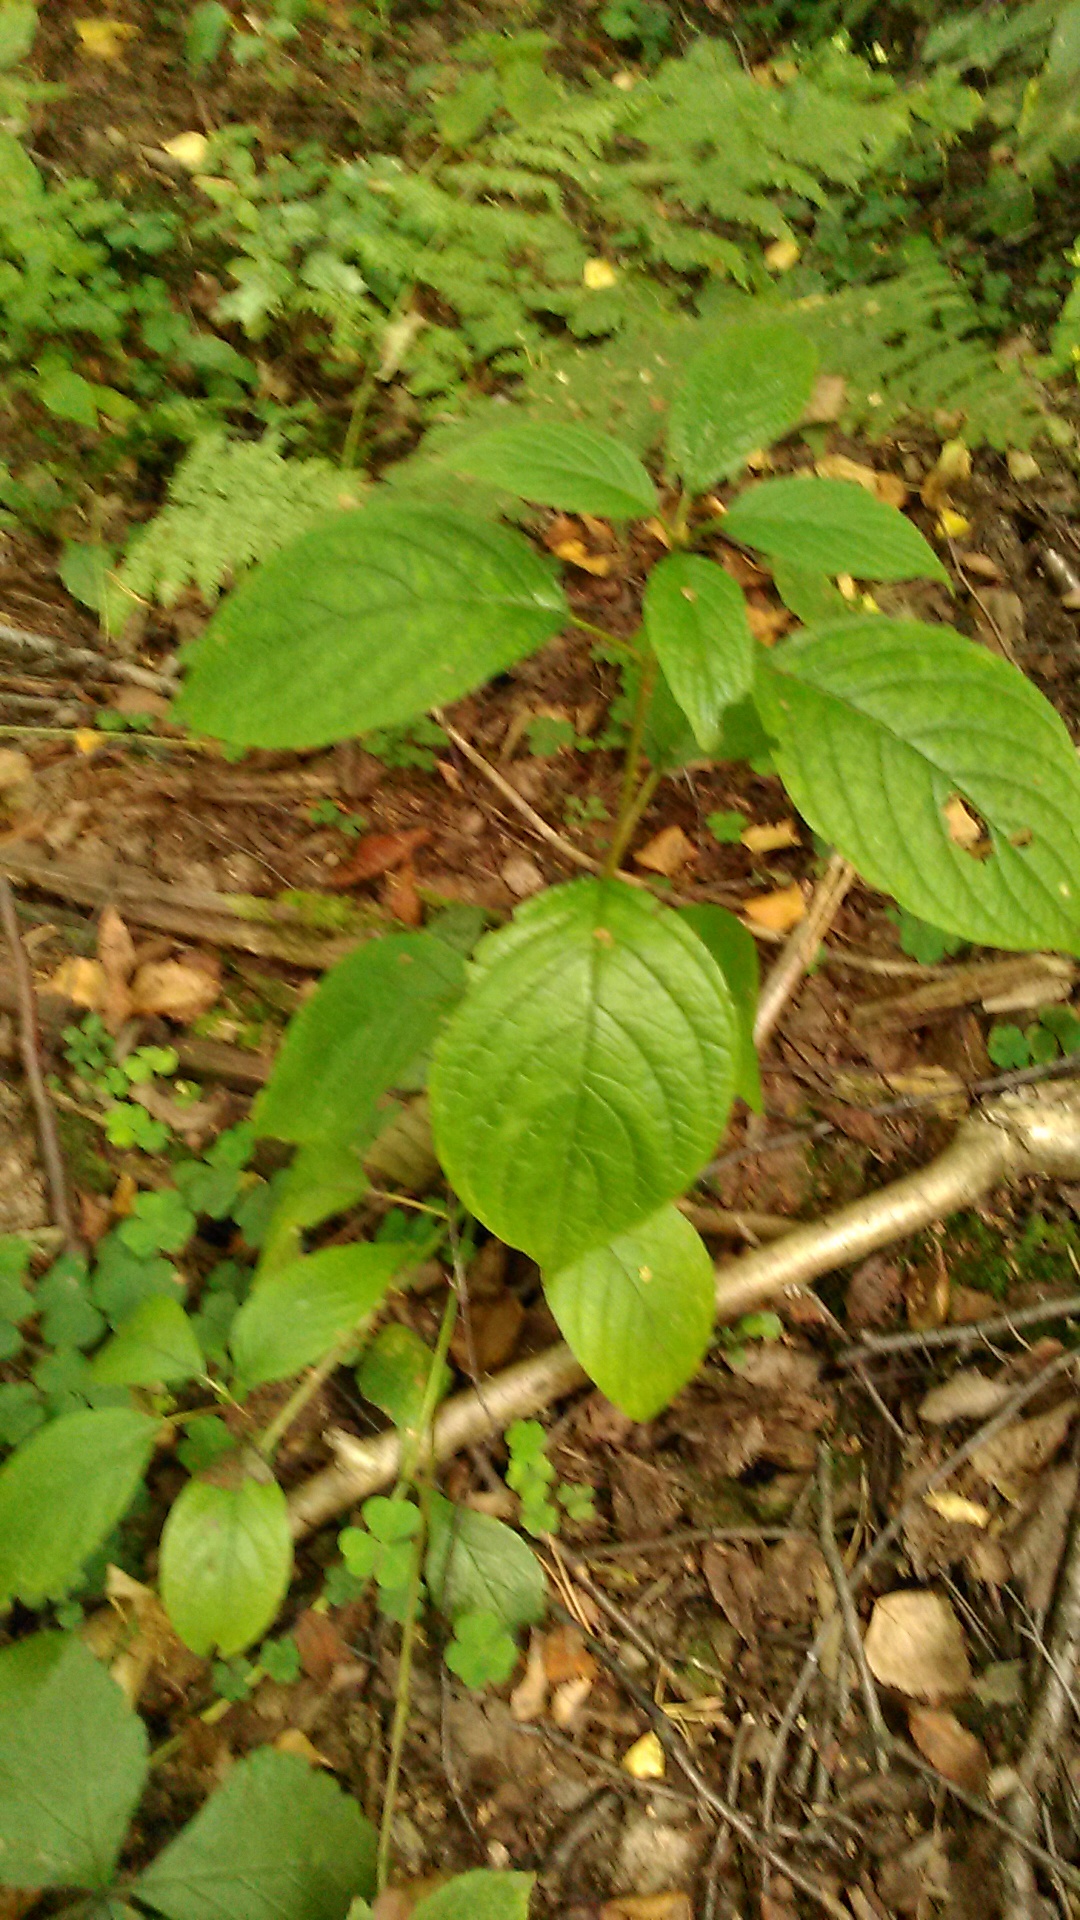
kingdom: Plantae
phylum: Tracheophyta
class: Magnoliopsida
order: Cornales
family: Cornaceae
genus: Cornus
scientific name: Cornus sericea
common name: Red-osier dogwood
